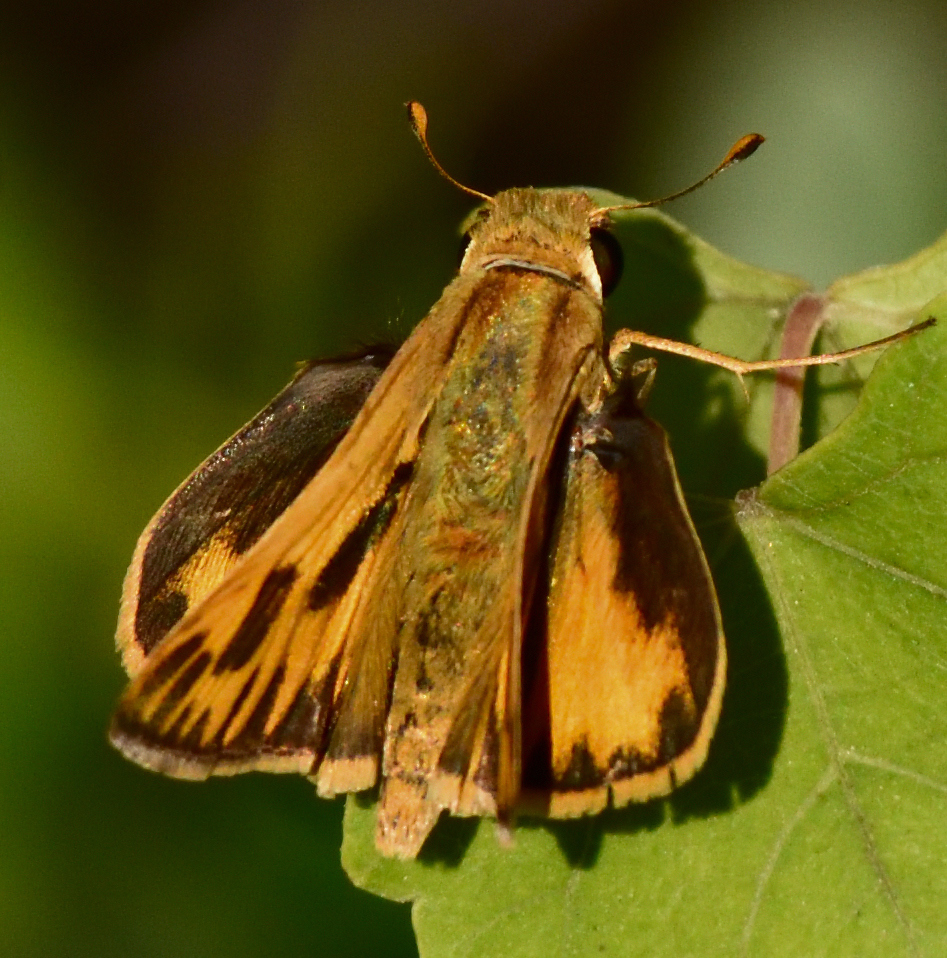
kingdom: Animalia
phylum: Arthropoda
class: Insecta
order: Lepidoptera
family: Hesperiidae
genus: Hylephila
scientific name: Hylephila phyleus
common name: Fiery skipper
